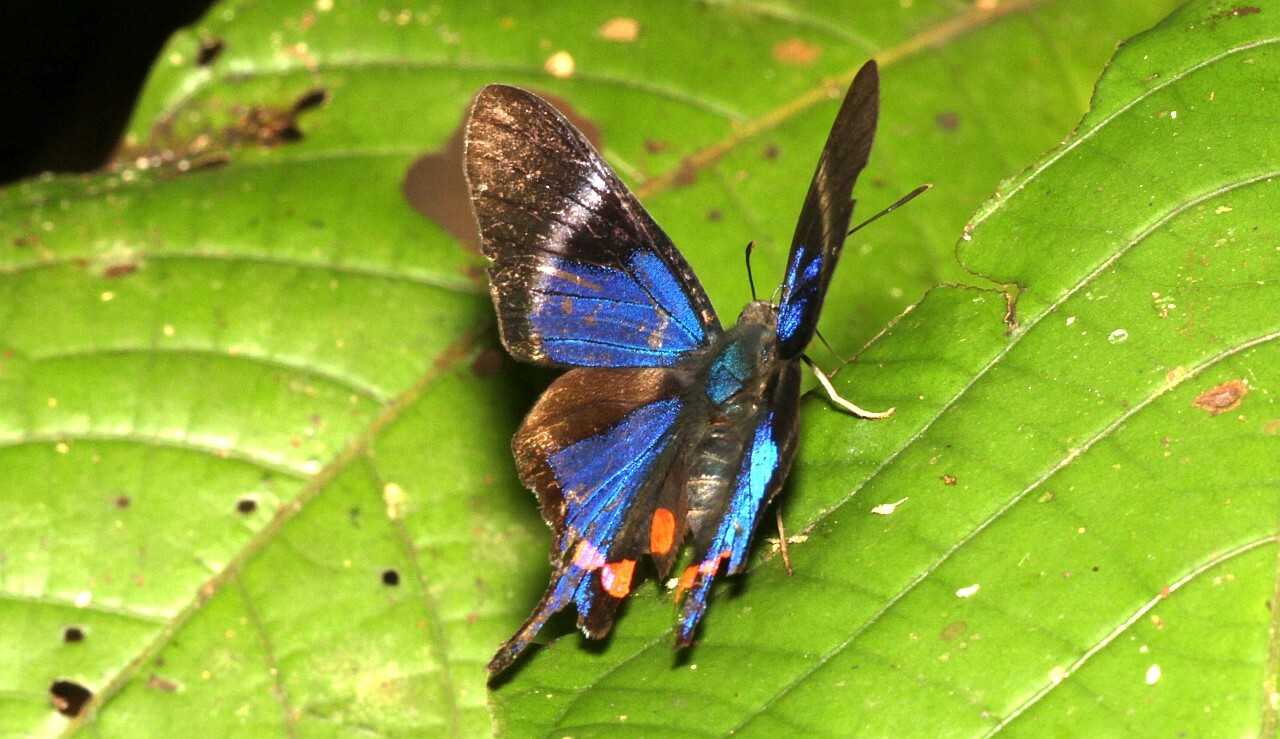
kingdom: Animalia
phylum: Arthropoda
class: Insecta
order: Lepidoptera
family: Riodinidae
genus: Rhetus
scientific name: Rhetus periander
